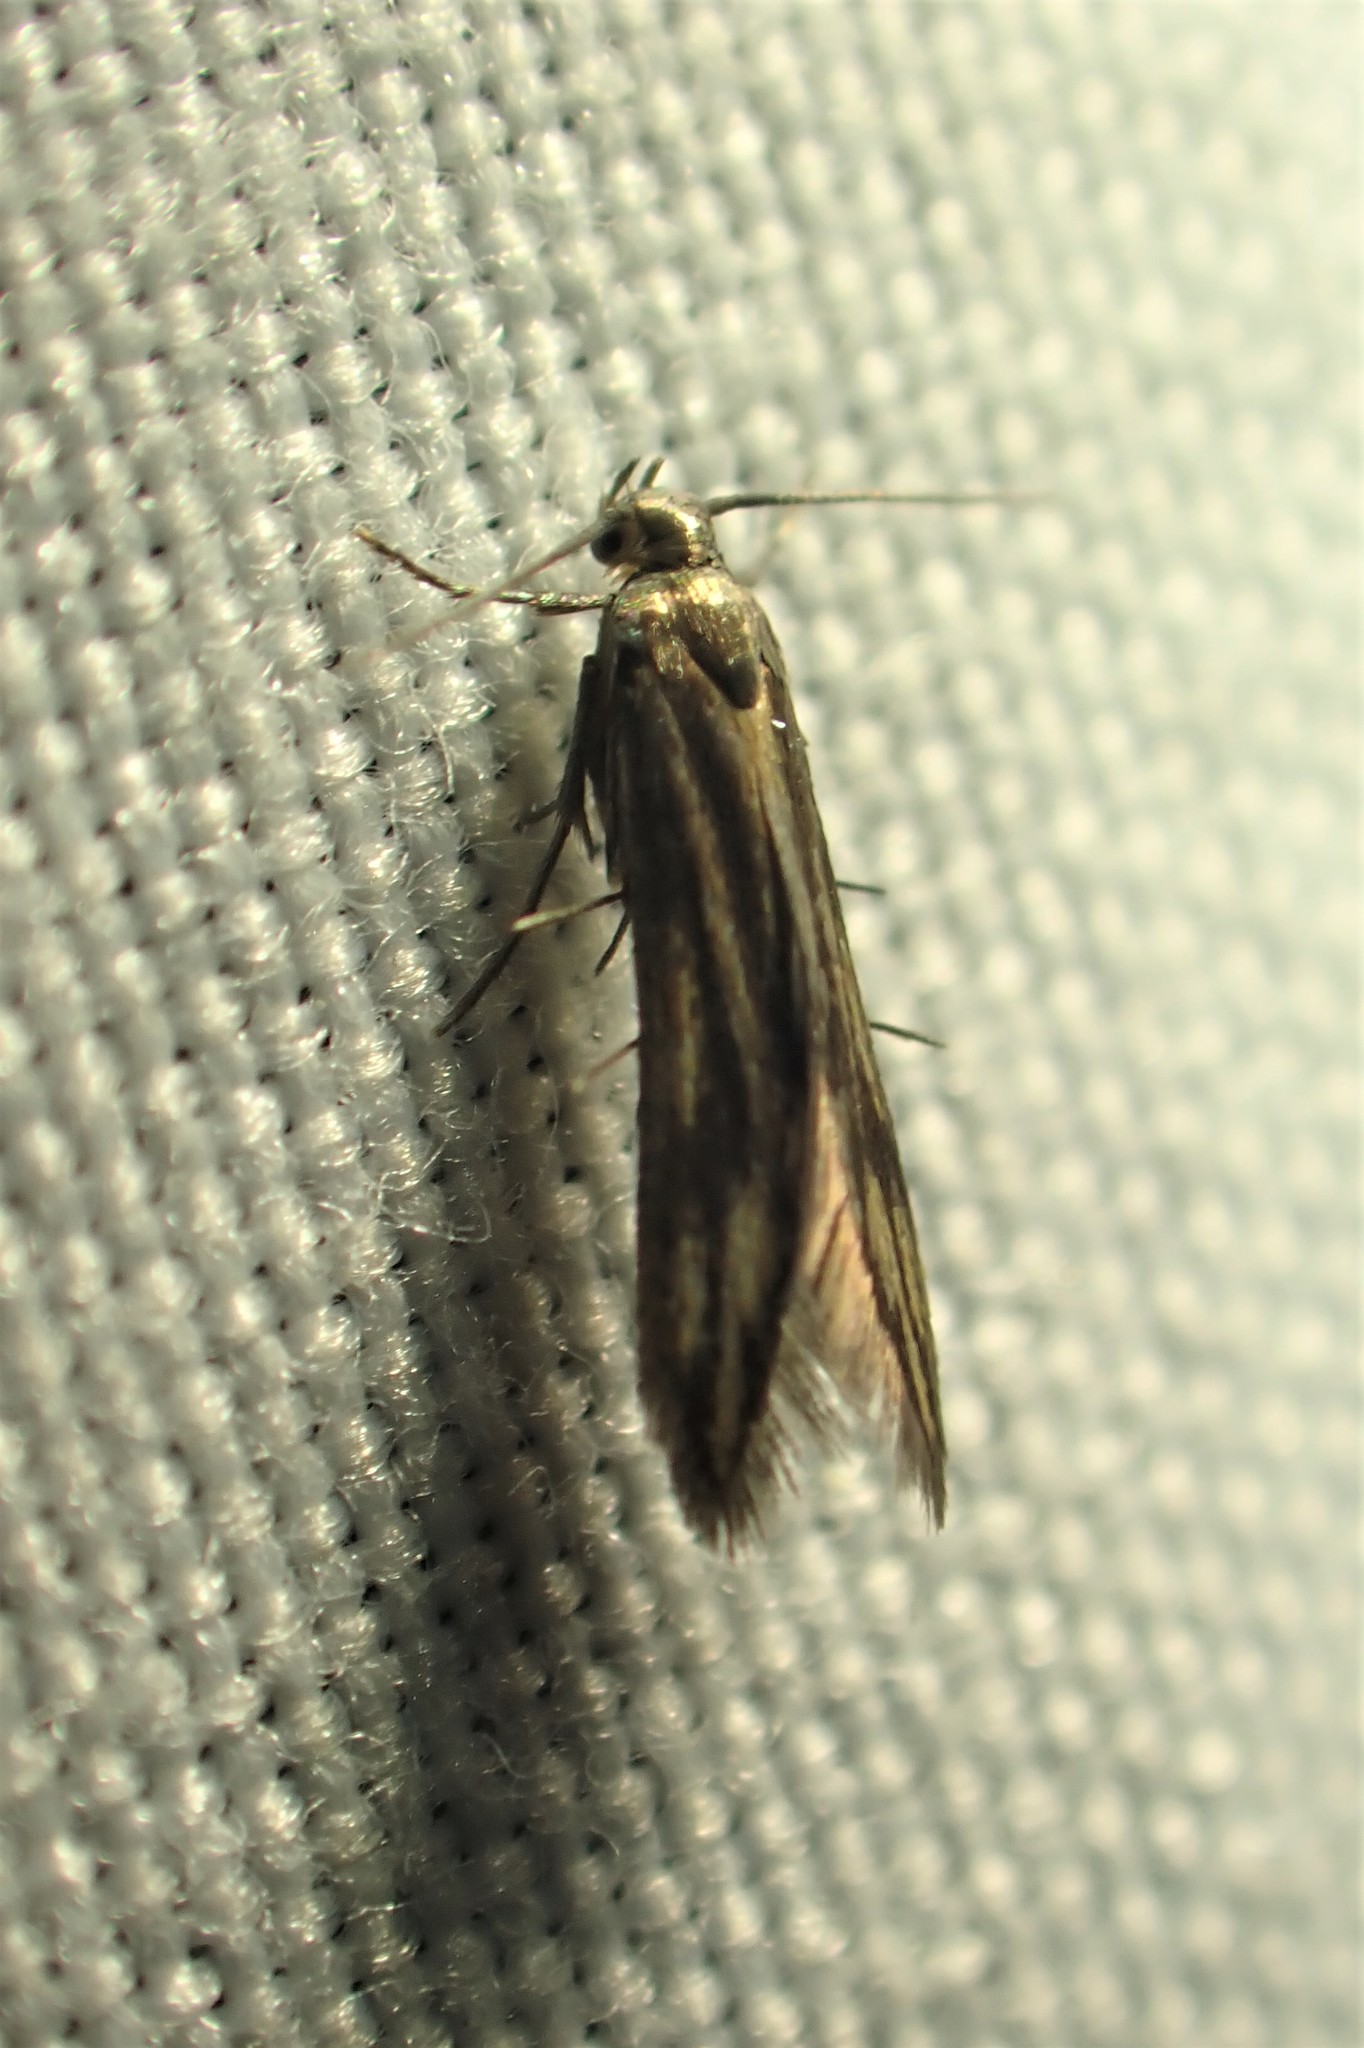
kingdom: Animalia
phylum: Arthropoda
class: Insecta
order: Lepidoptera
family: Schreckensteiniidae
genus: Schreckensteinia
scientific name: Schreckensteinia festaliella
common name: Blackberry skeletonizer
